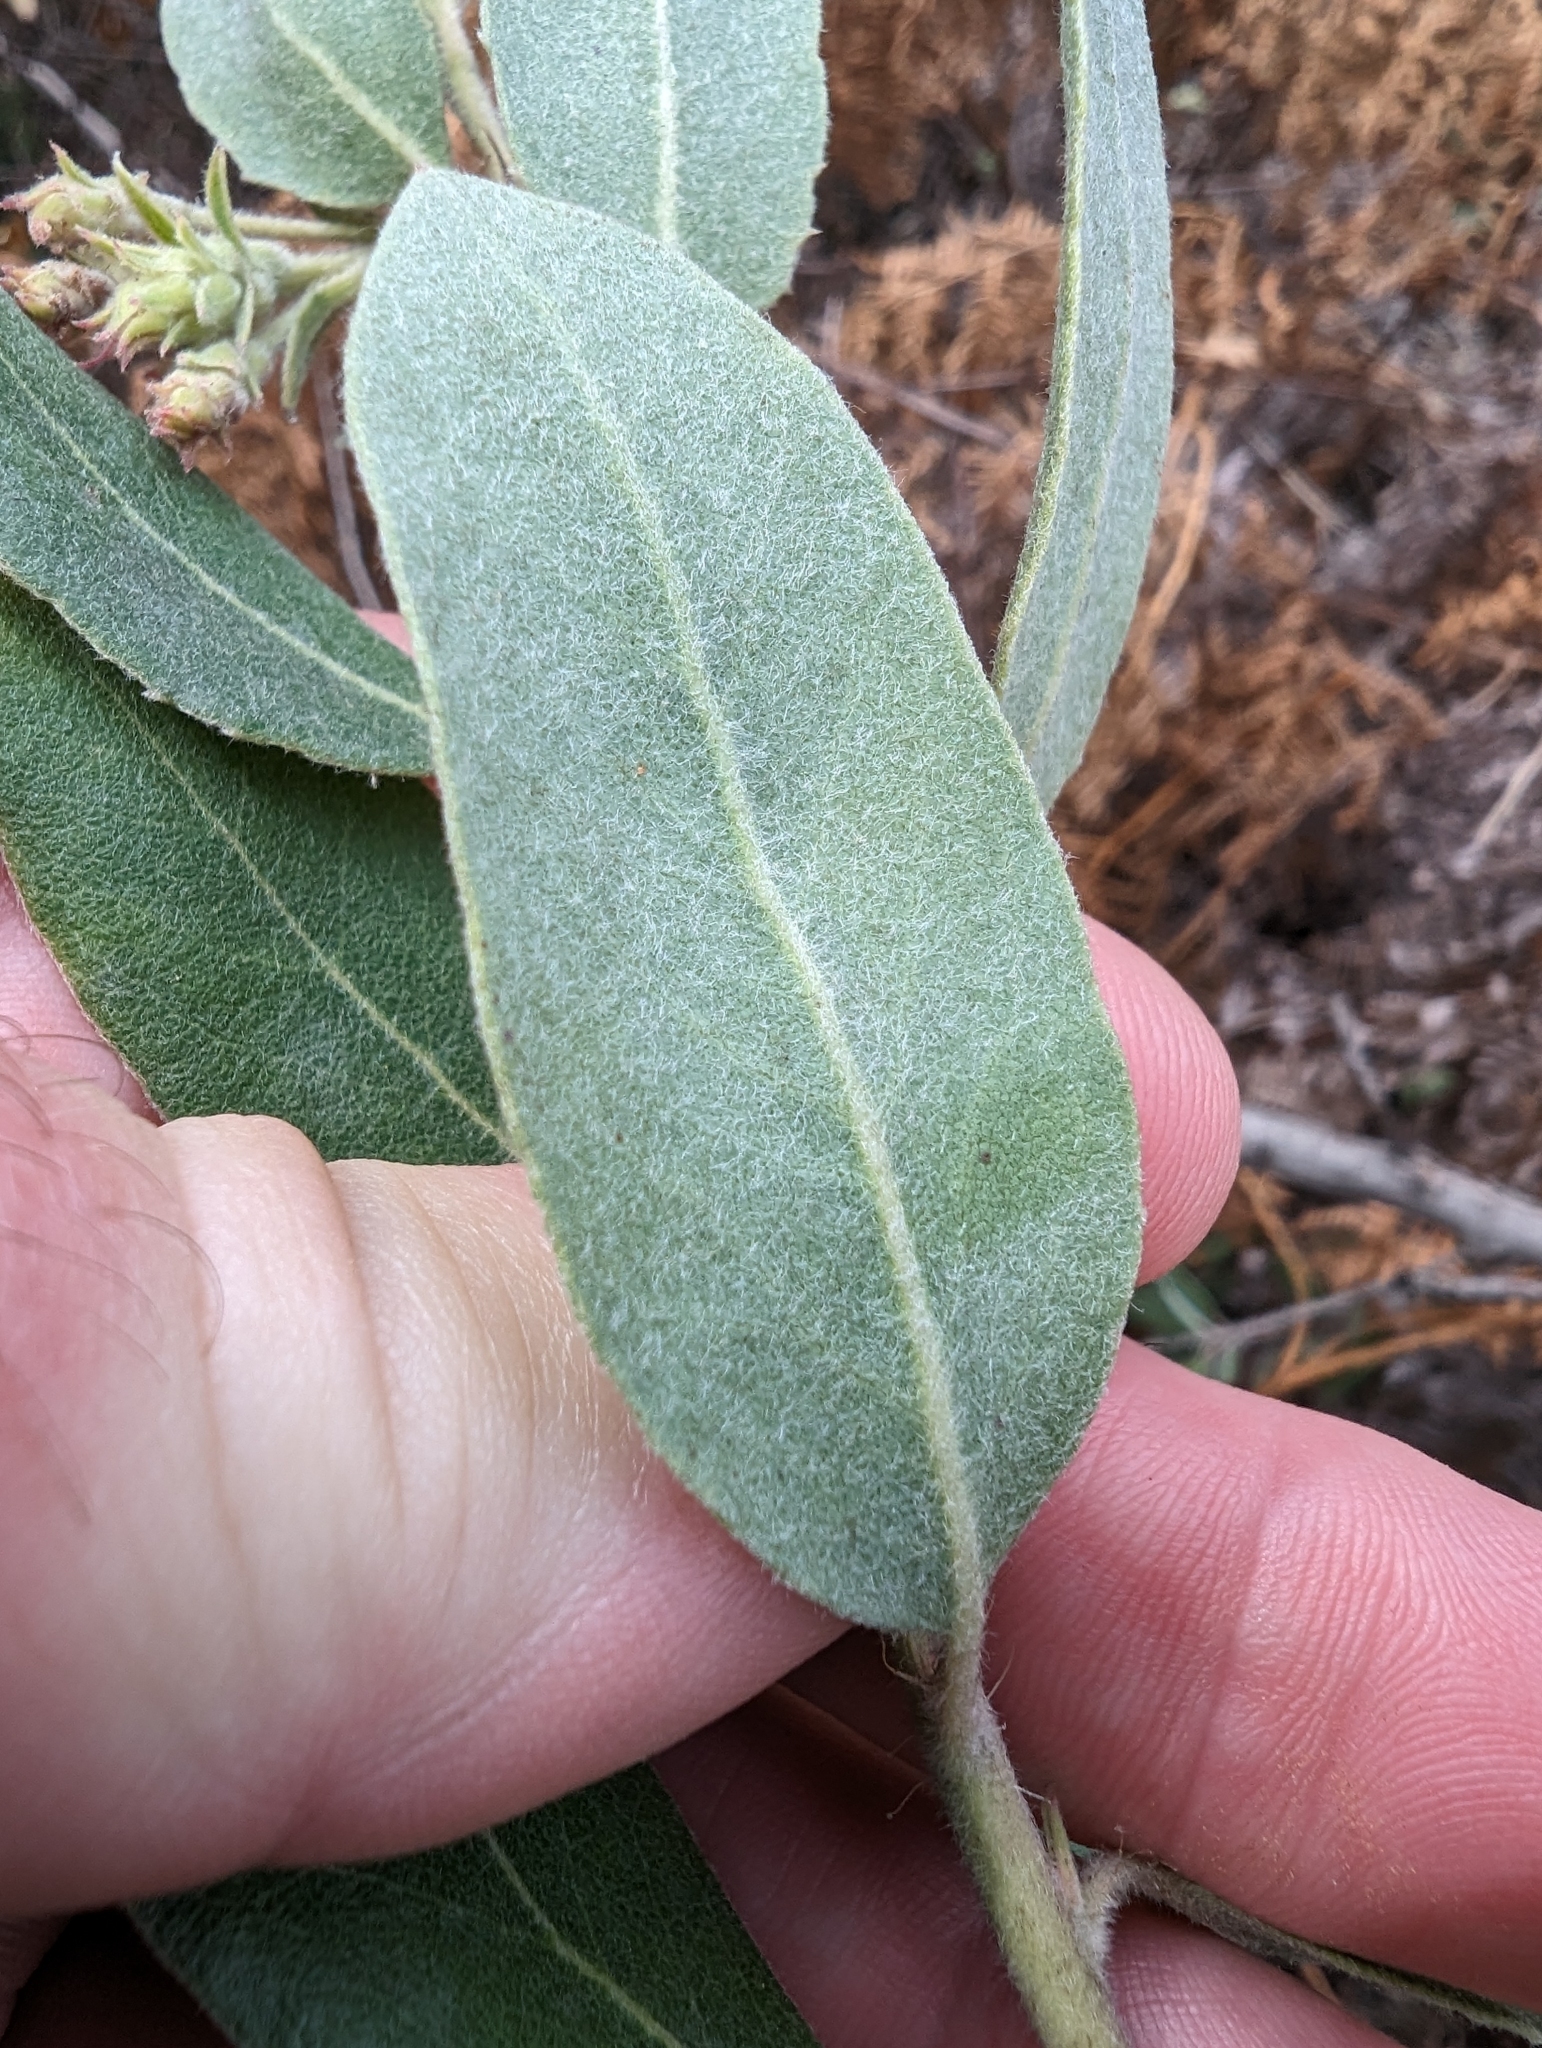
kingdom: Plantae
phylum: Tracheophyta
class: Magnoliopsida
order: Ericales
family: Ericaceae
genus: Arctostaphylos
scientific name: Arctostaphylos crustacea
